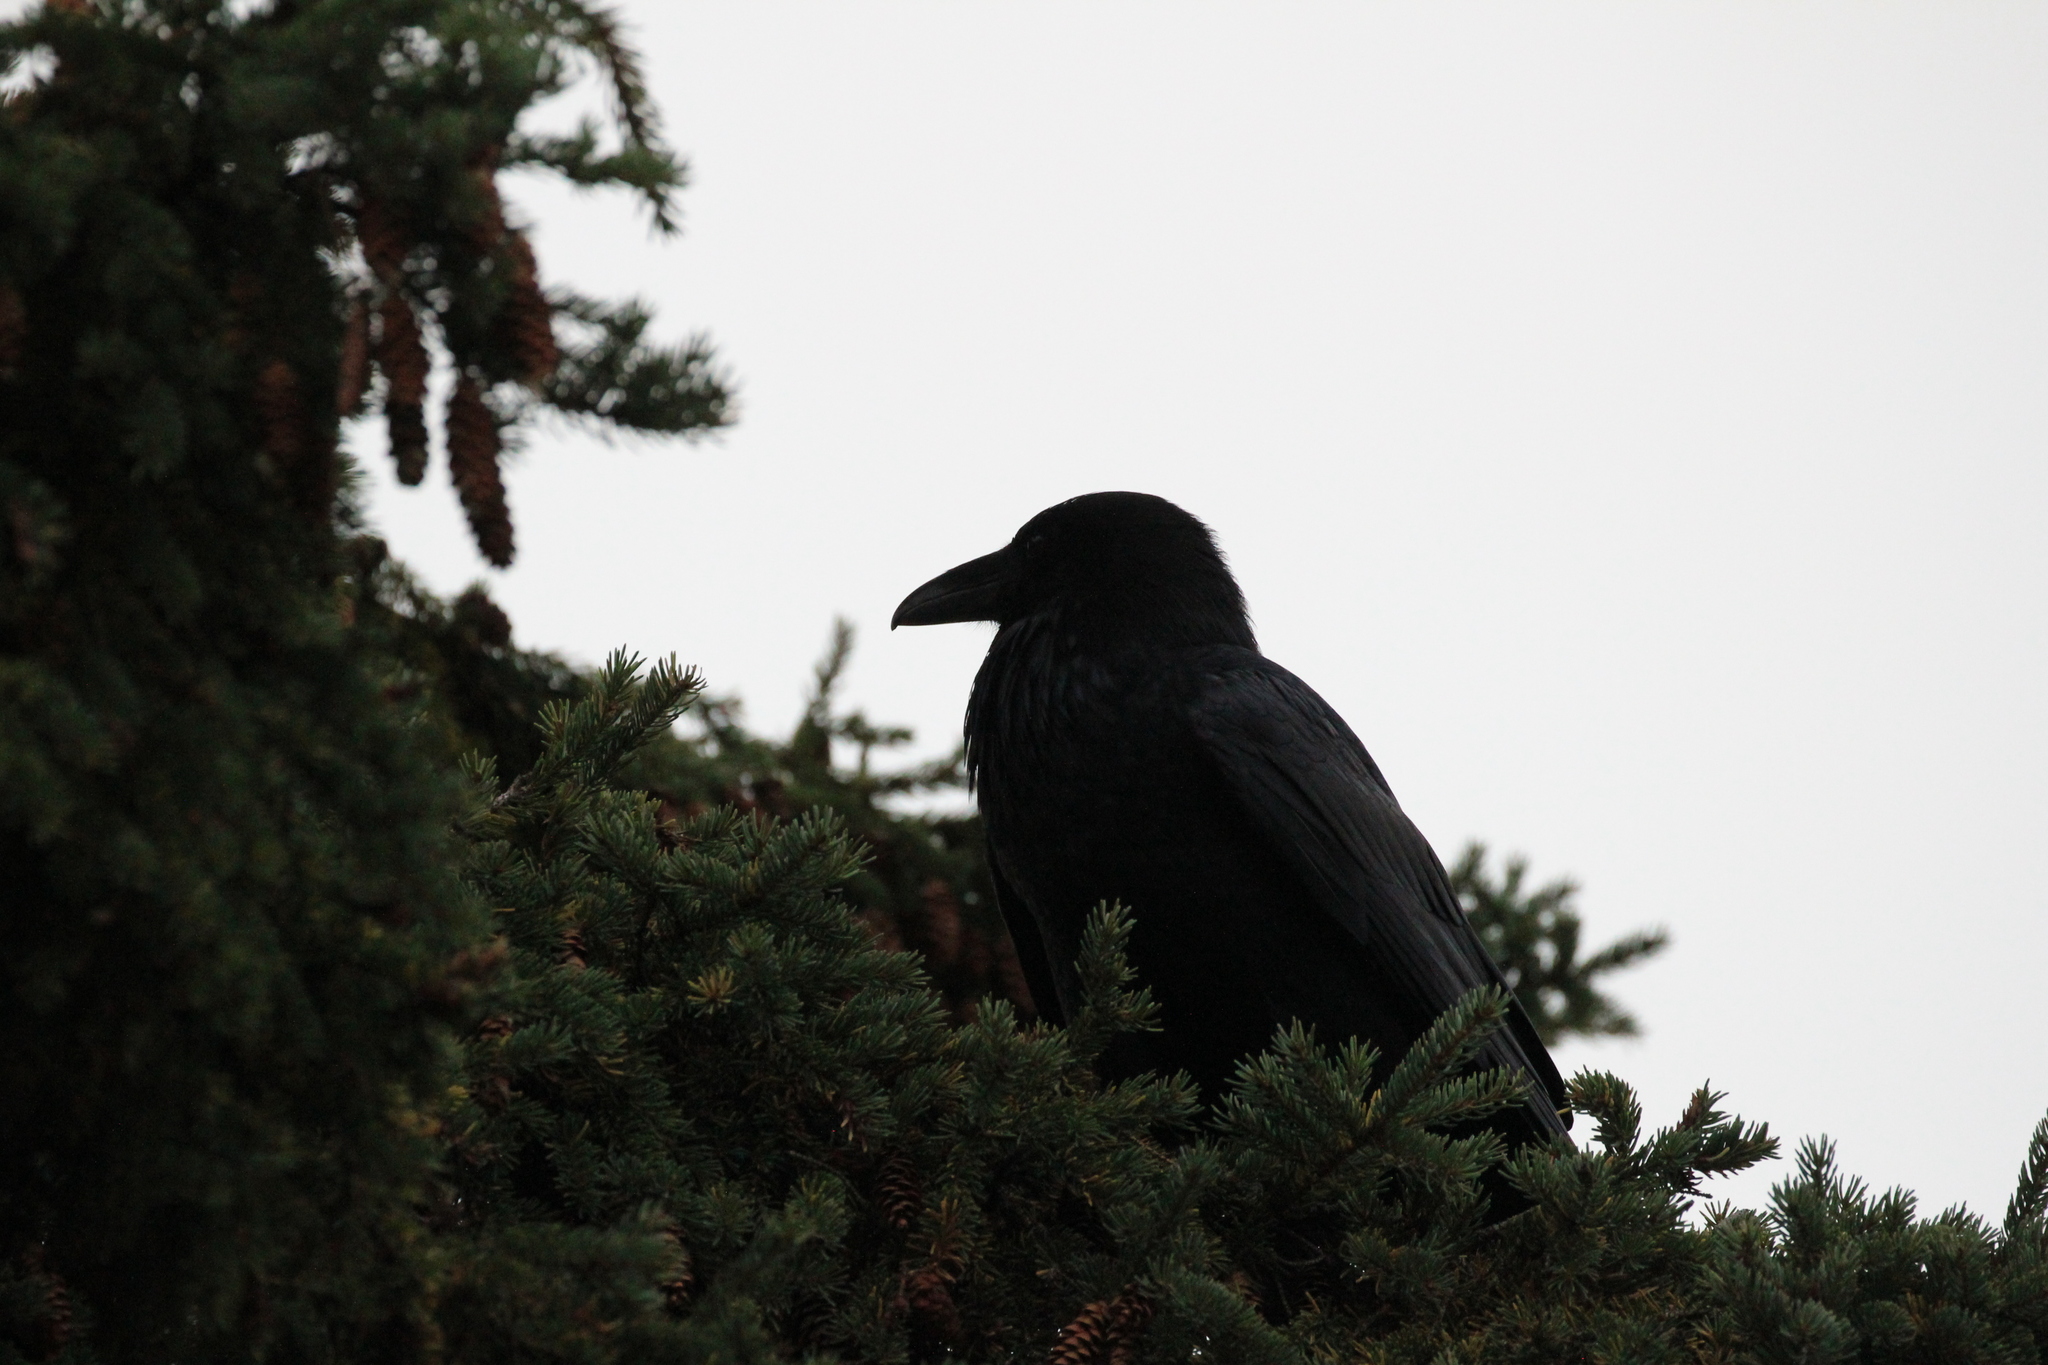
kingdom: Animalia
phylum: Chordata
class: Aves
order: Passeriformes
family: Corvidae
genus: Corvus
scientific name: Corvus corax
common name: Common raven
